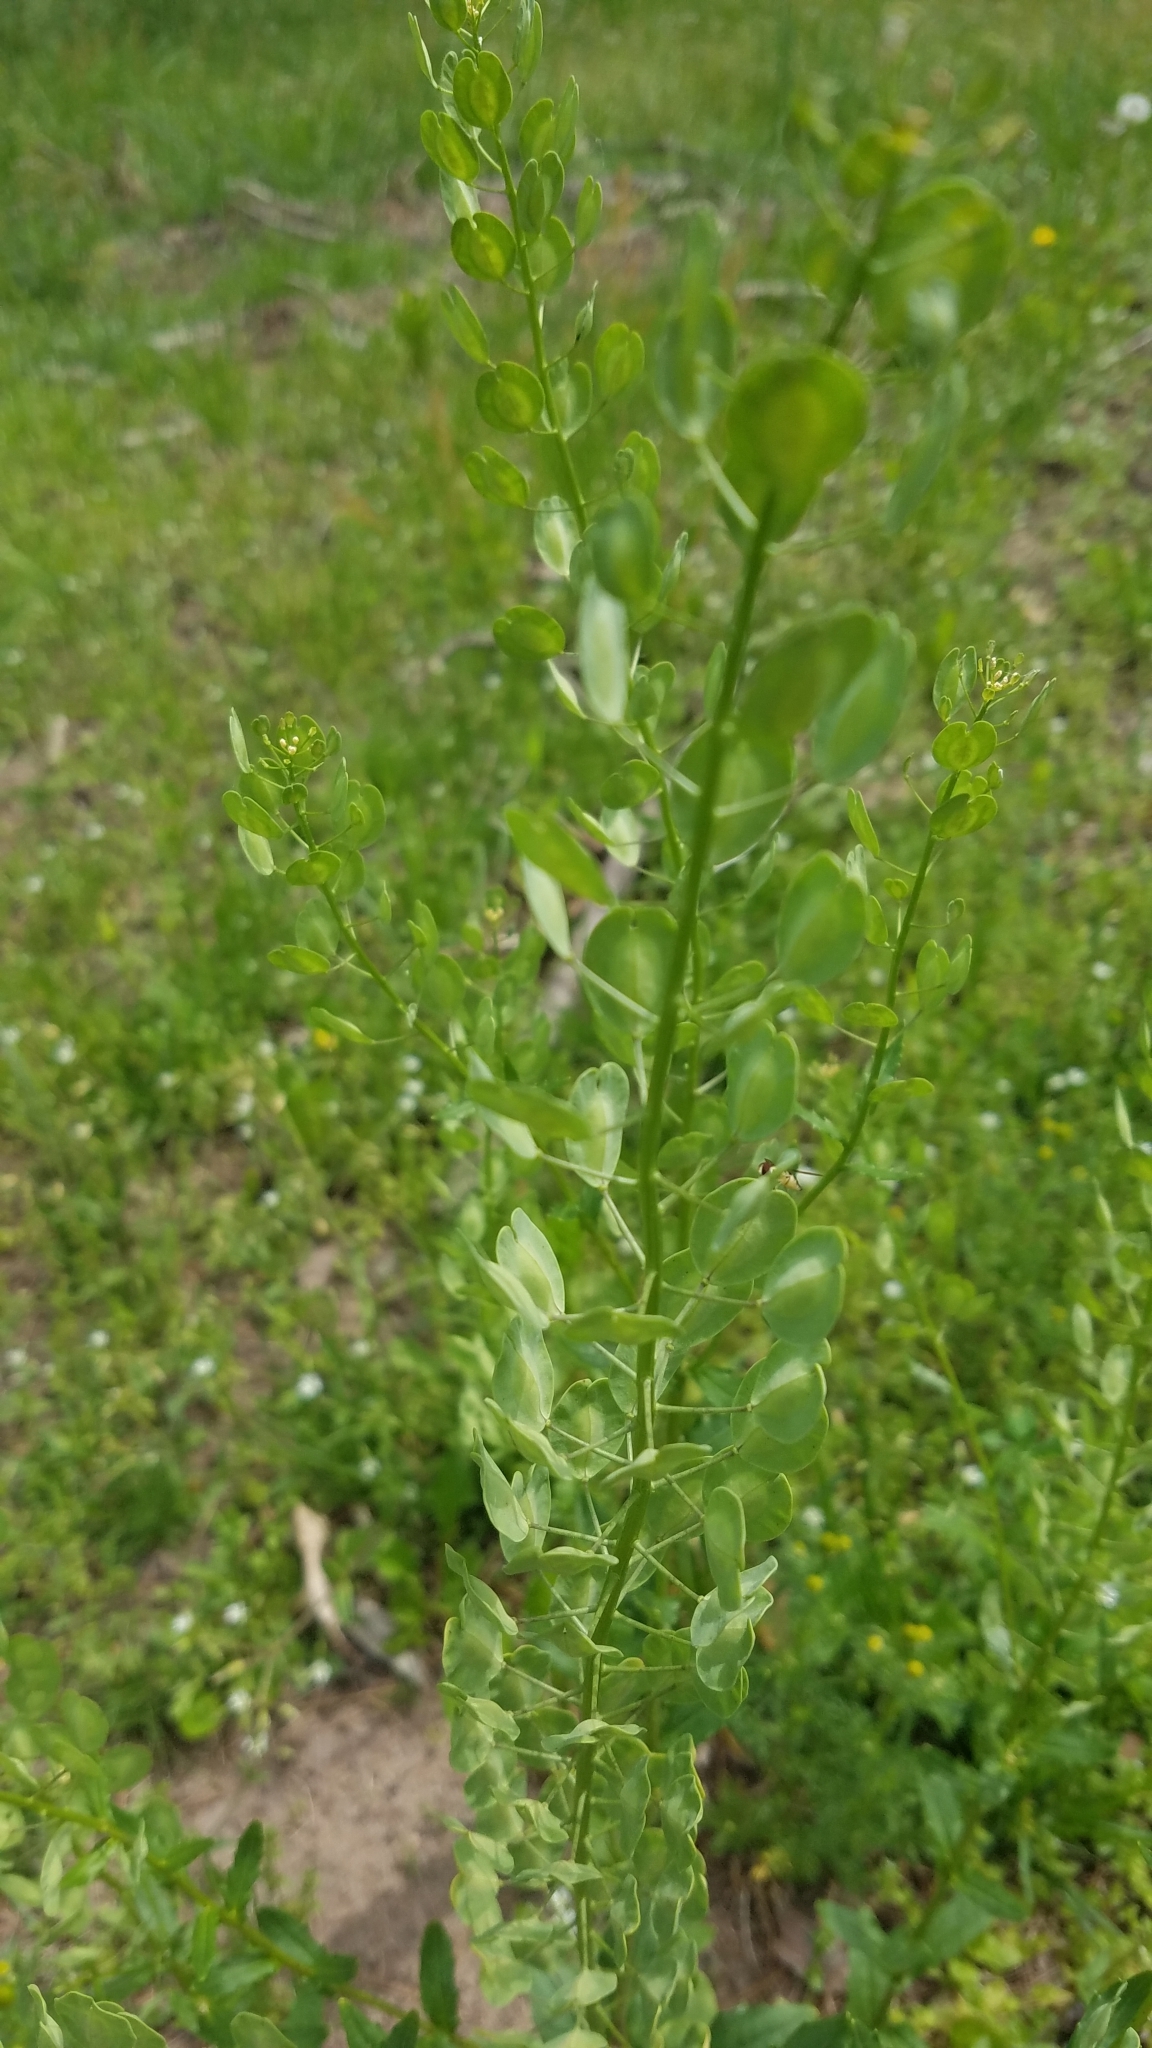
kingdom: Plantae
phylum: Tracheophyta
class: Magnoliopsida
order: Brassicales
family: Brassicaceae
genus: Thlaspi
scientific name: Thlaspi arvense
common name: Field pennycress
